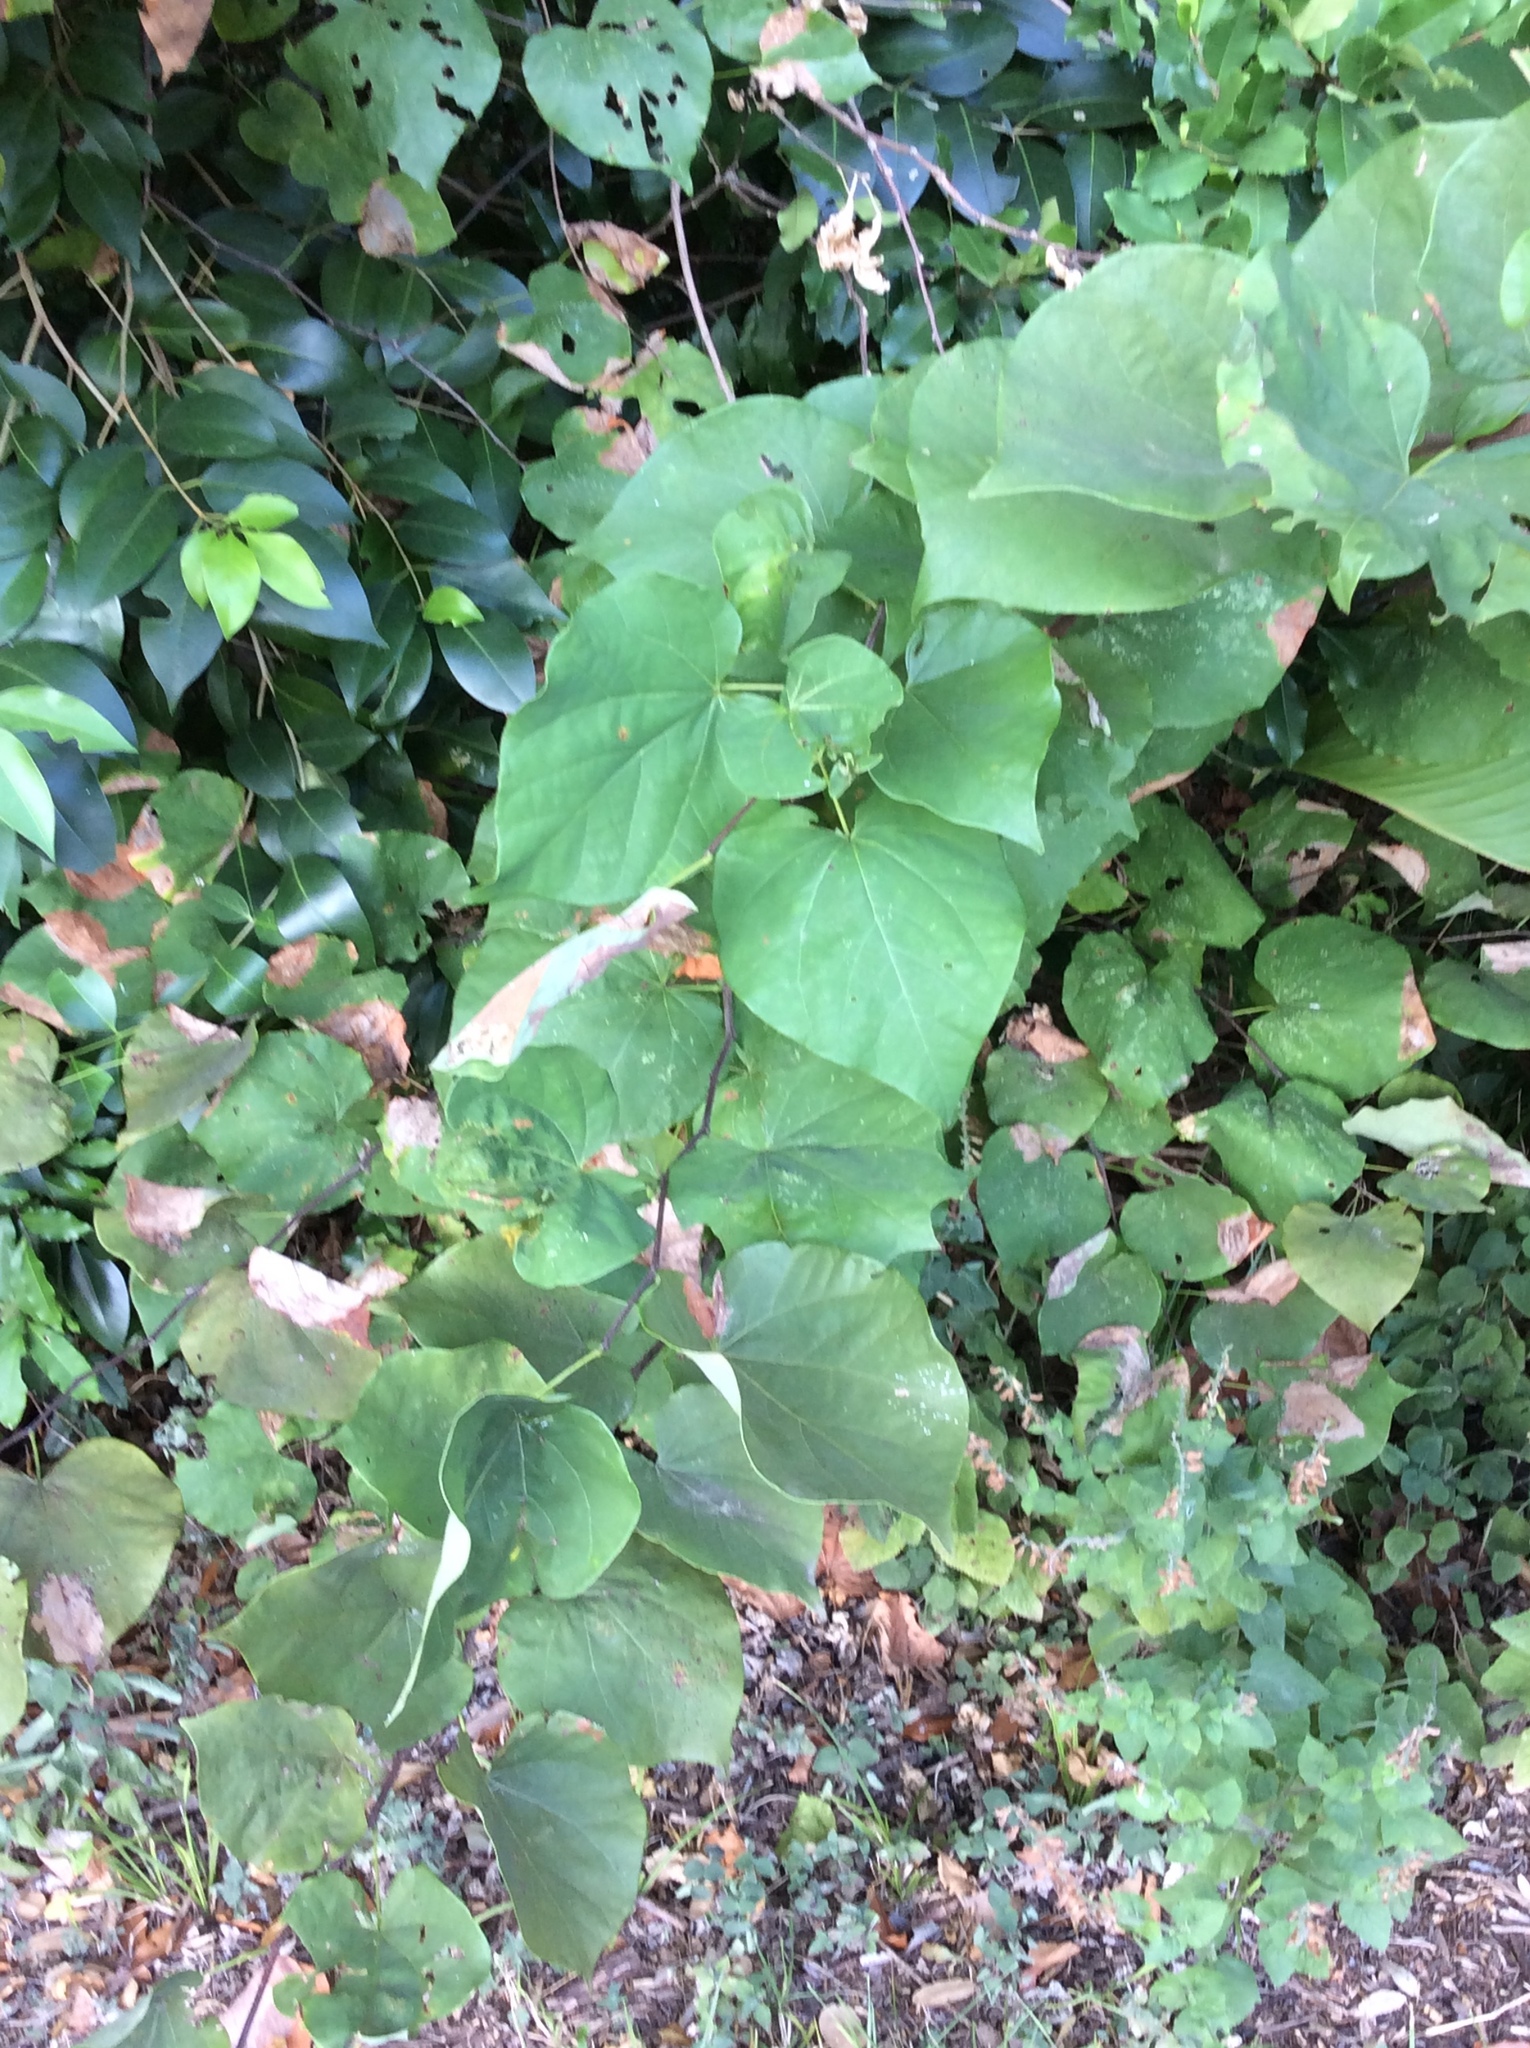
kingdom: Plantae
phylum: Tracheophyta
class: Magnoliopsida
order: Fabales
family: Fabaceae
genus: Cercis
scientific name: Cercis canadensis
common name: Eastern redbud
